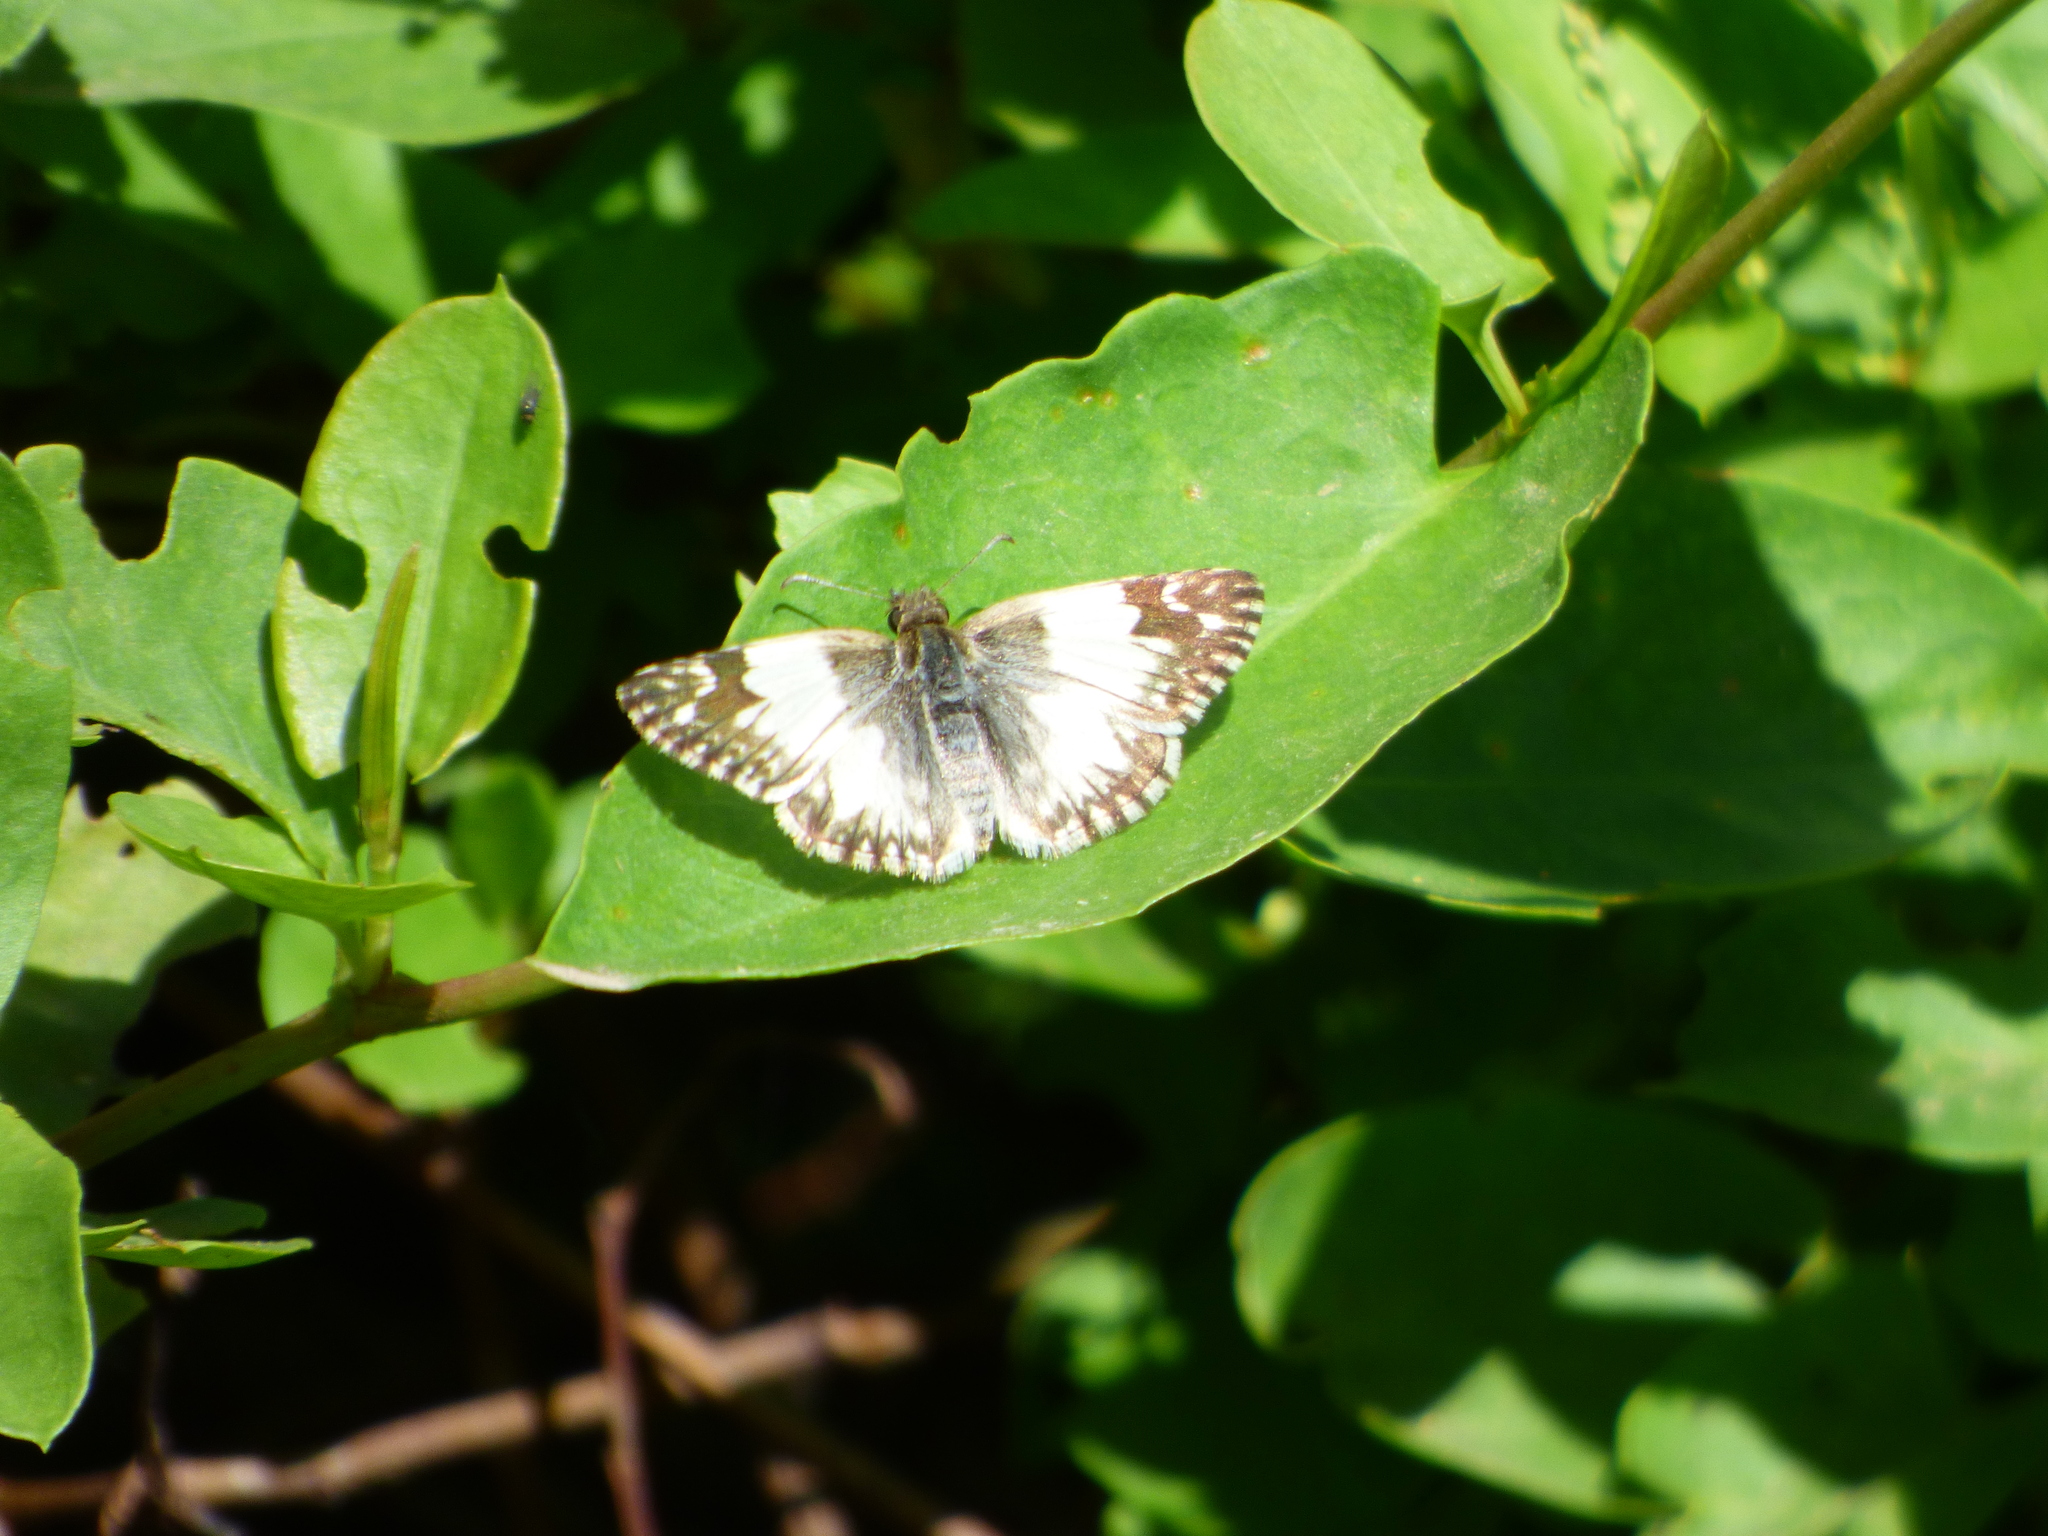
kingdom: Animalia
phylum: Arthropoda
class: Insecta
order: Lepidoptera
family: Hesperiidae
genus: Heliopetes
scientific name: Heliopetes omrina
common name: Stained white-skipper
